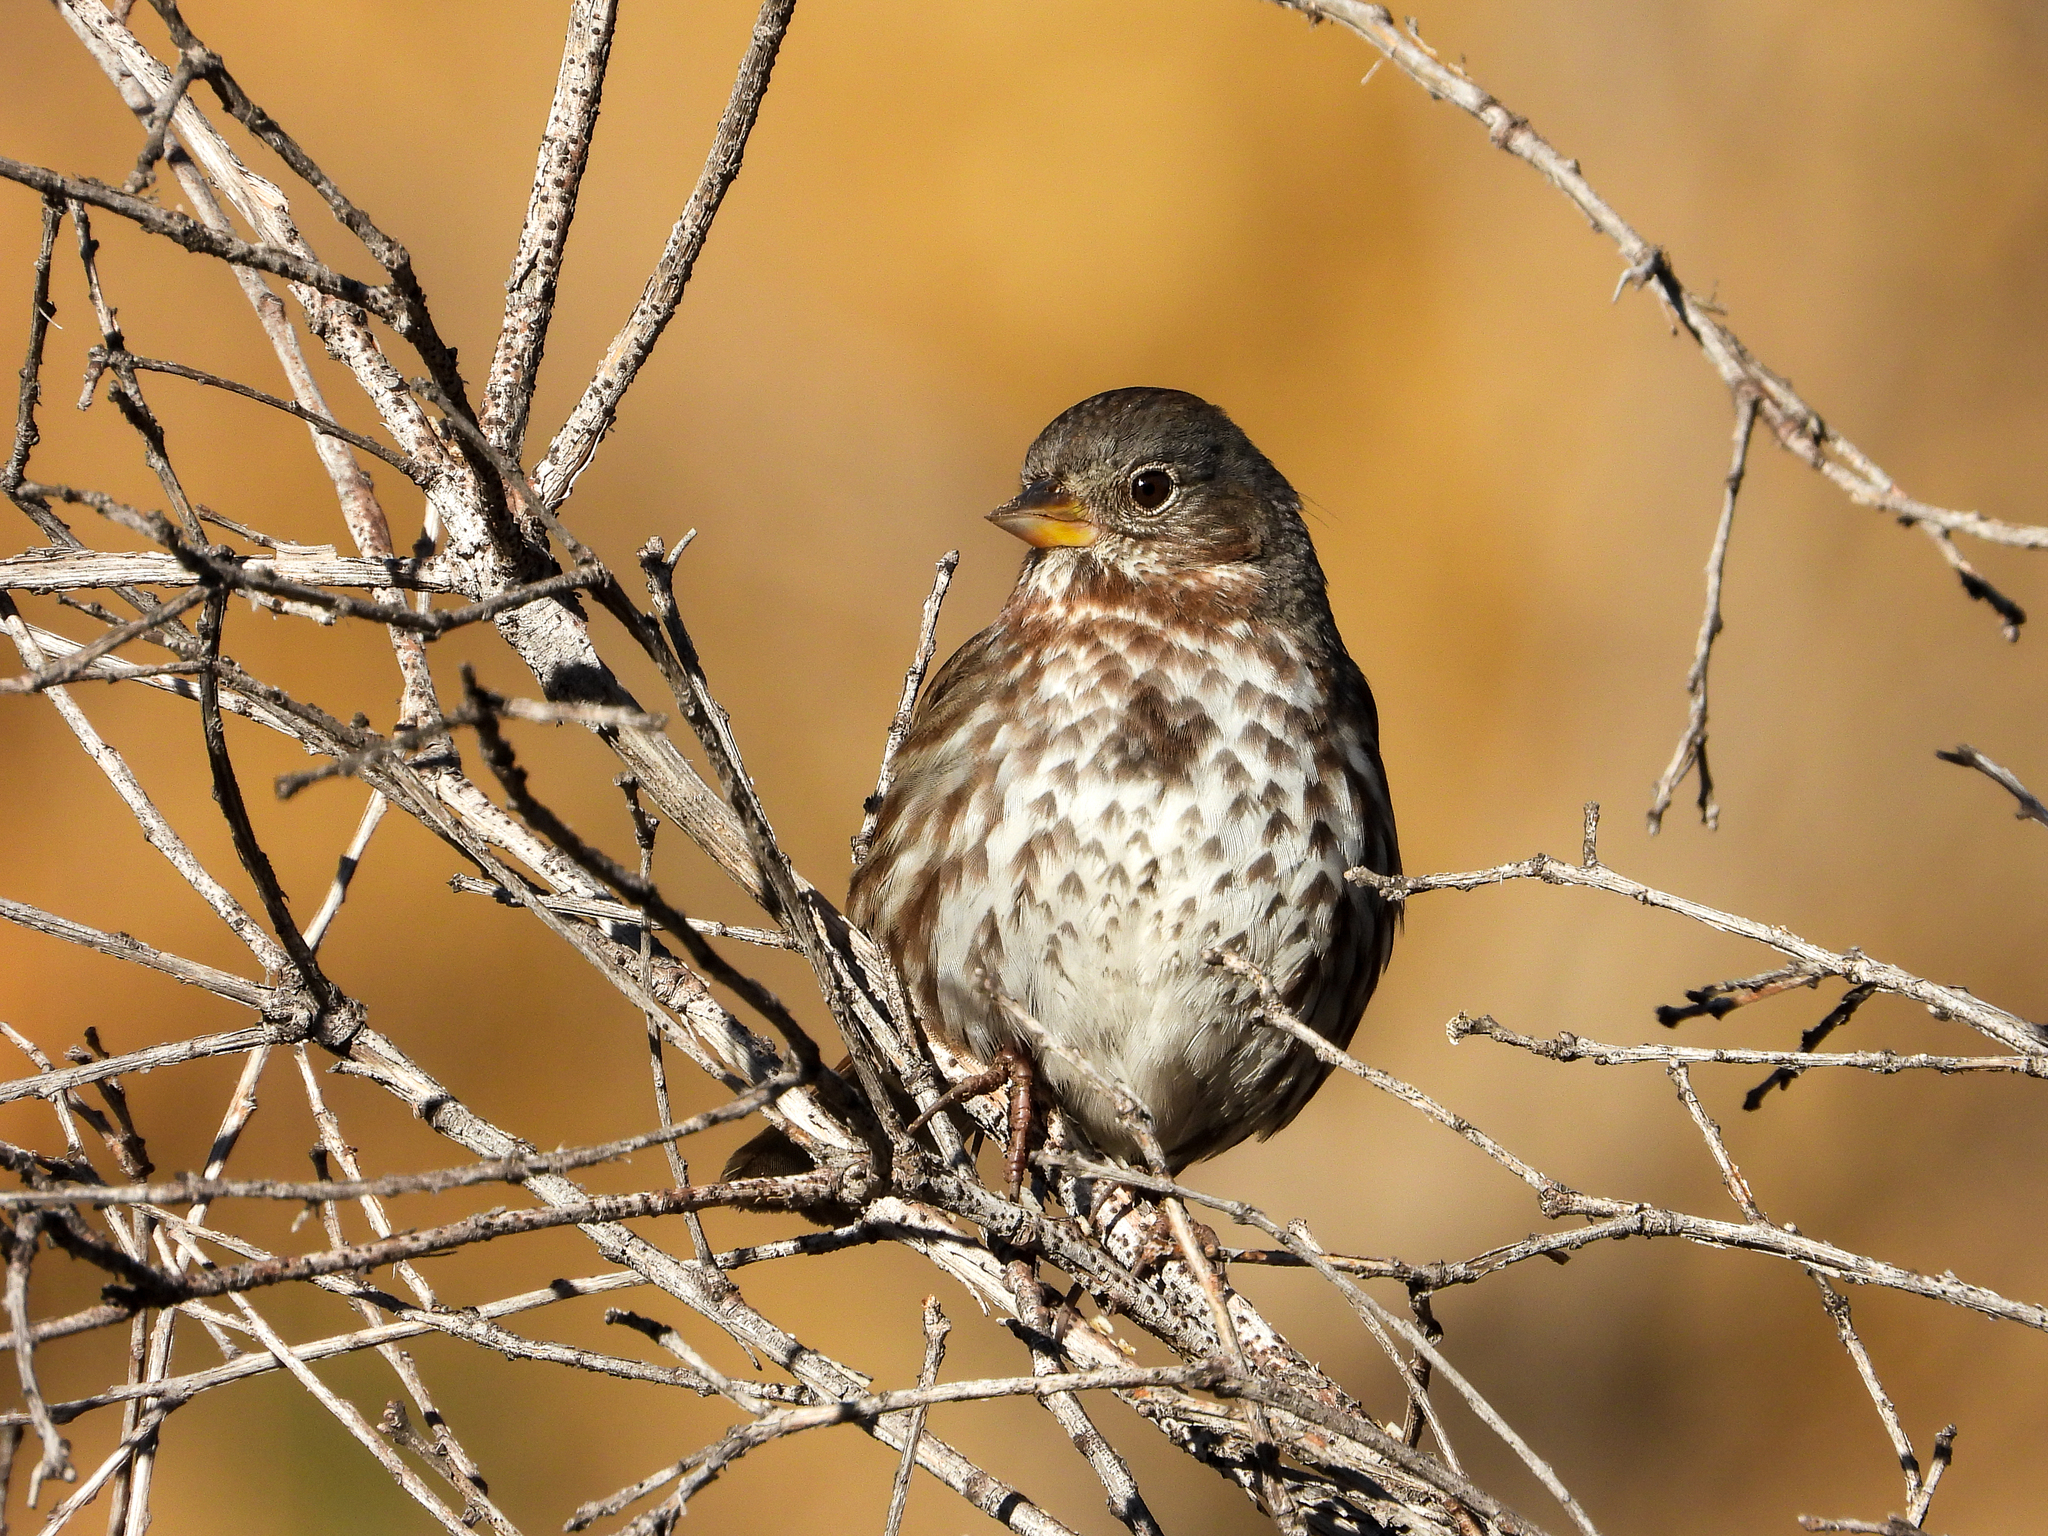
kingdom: Animalia
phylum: Chordata
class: Aves
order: Passeriformes
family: Passerellidae
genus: Passerella
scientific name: Passerella iliaca
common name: Fox sparrow
